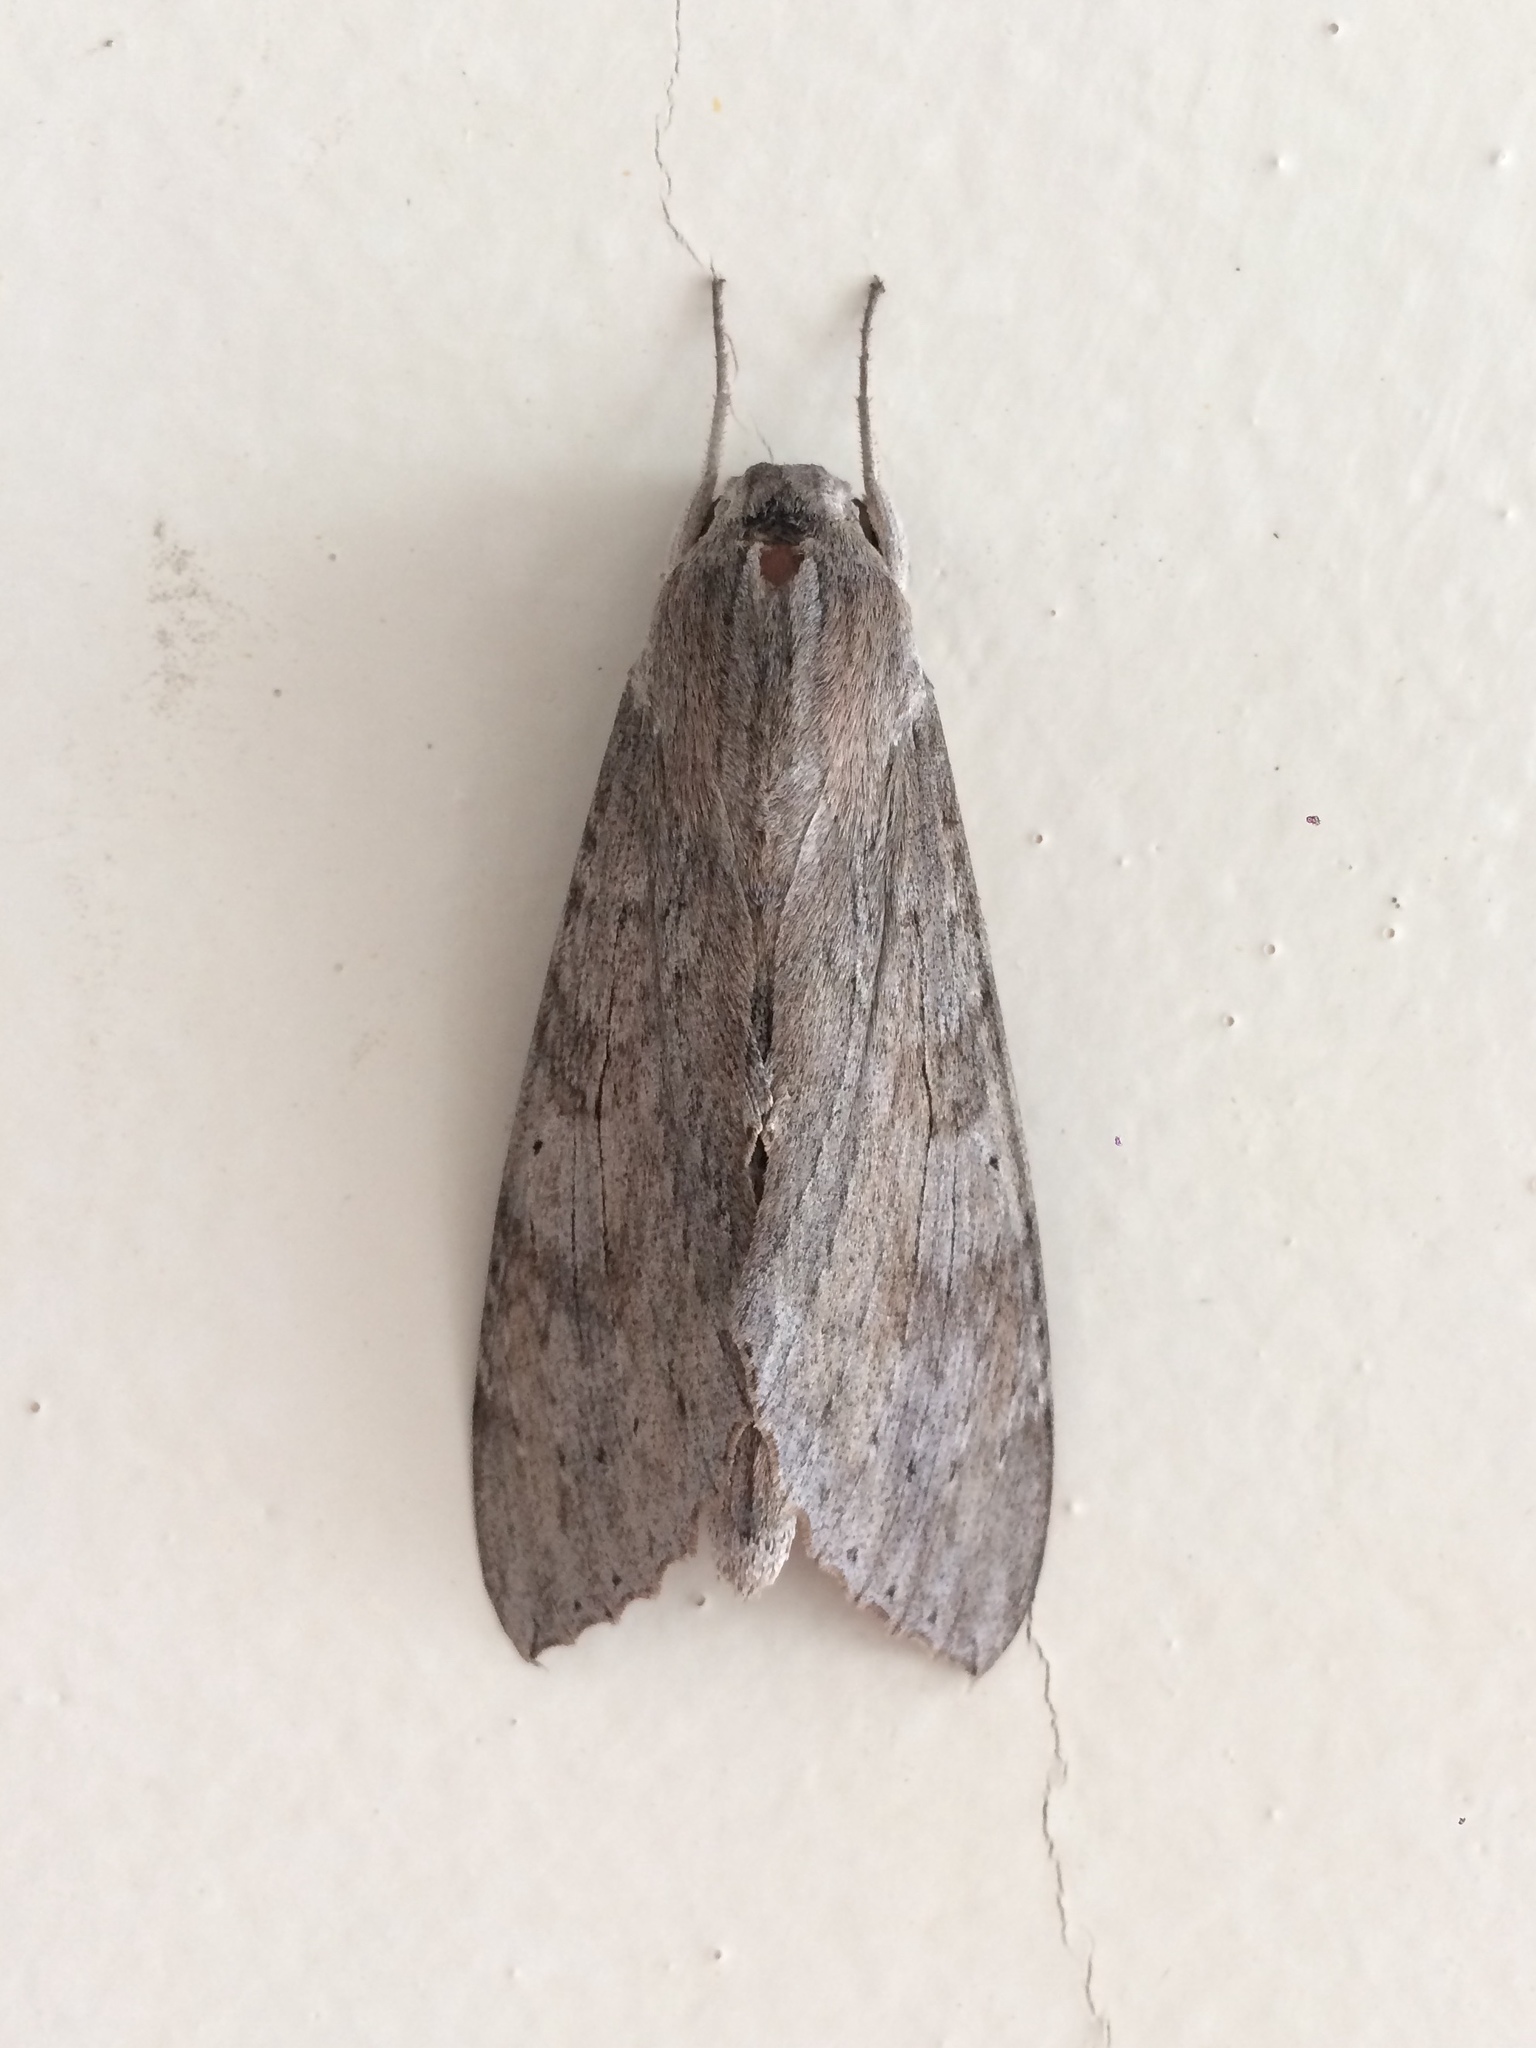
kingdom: Animalia
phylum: Arthropoda
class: Insecta
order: Lepidoptera
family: Sphingidae
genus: Erinnyis
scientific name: Erinnyis ello
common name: Ello sphinx
